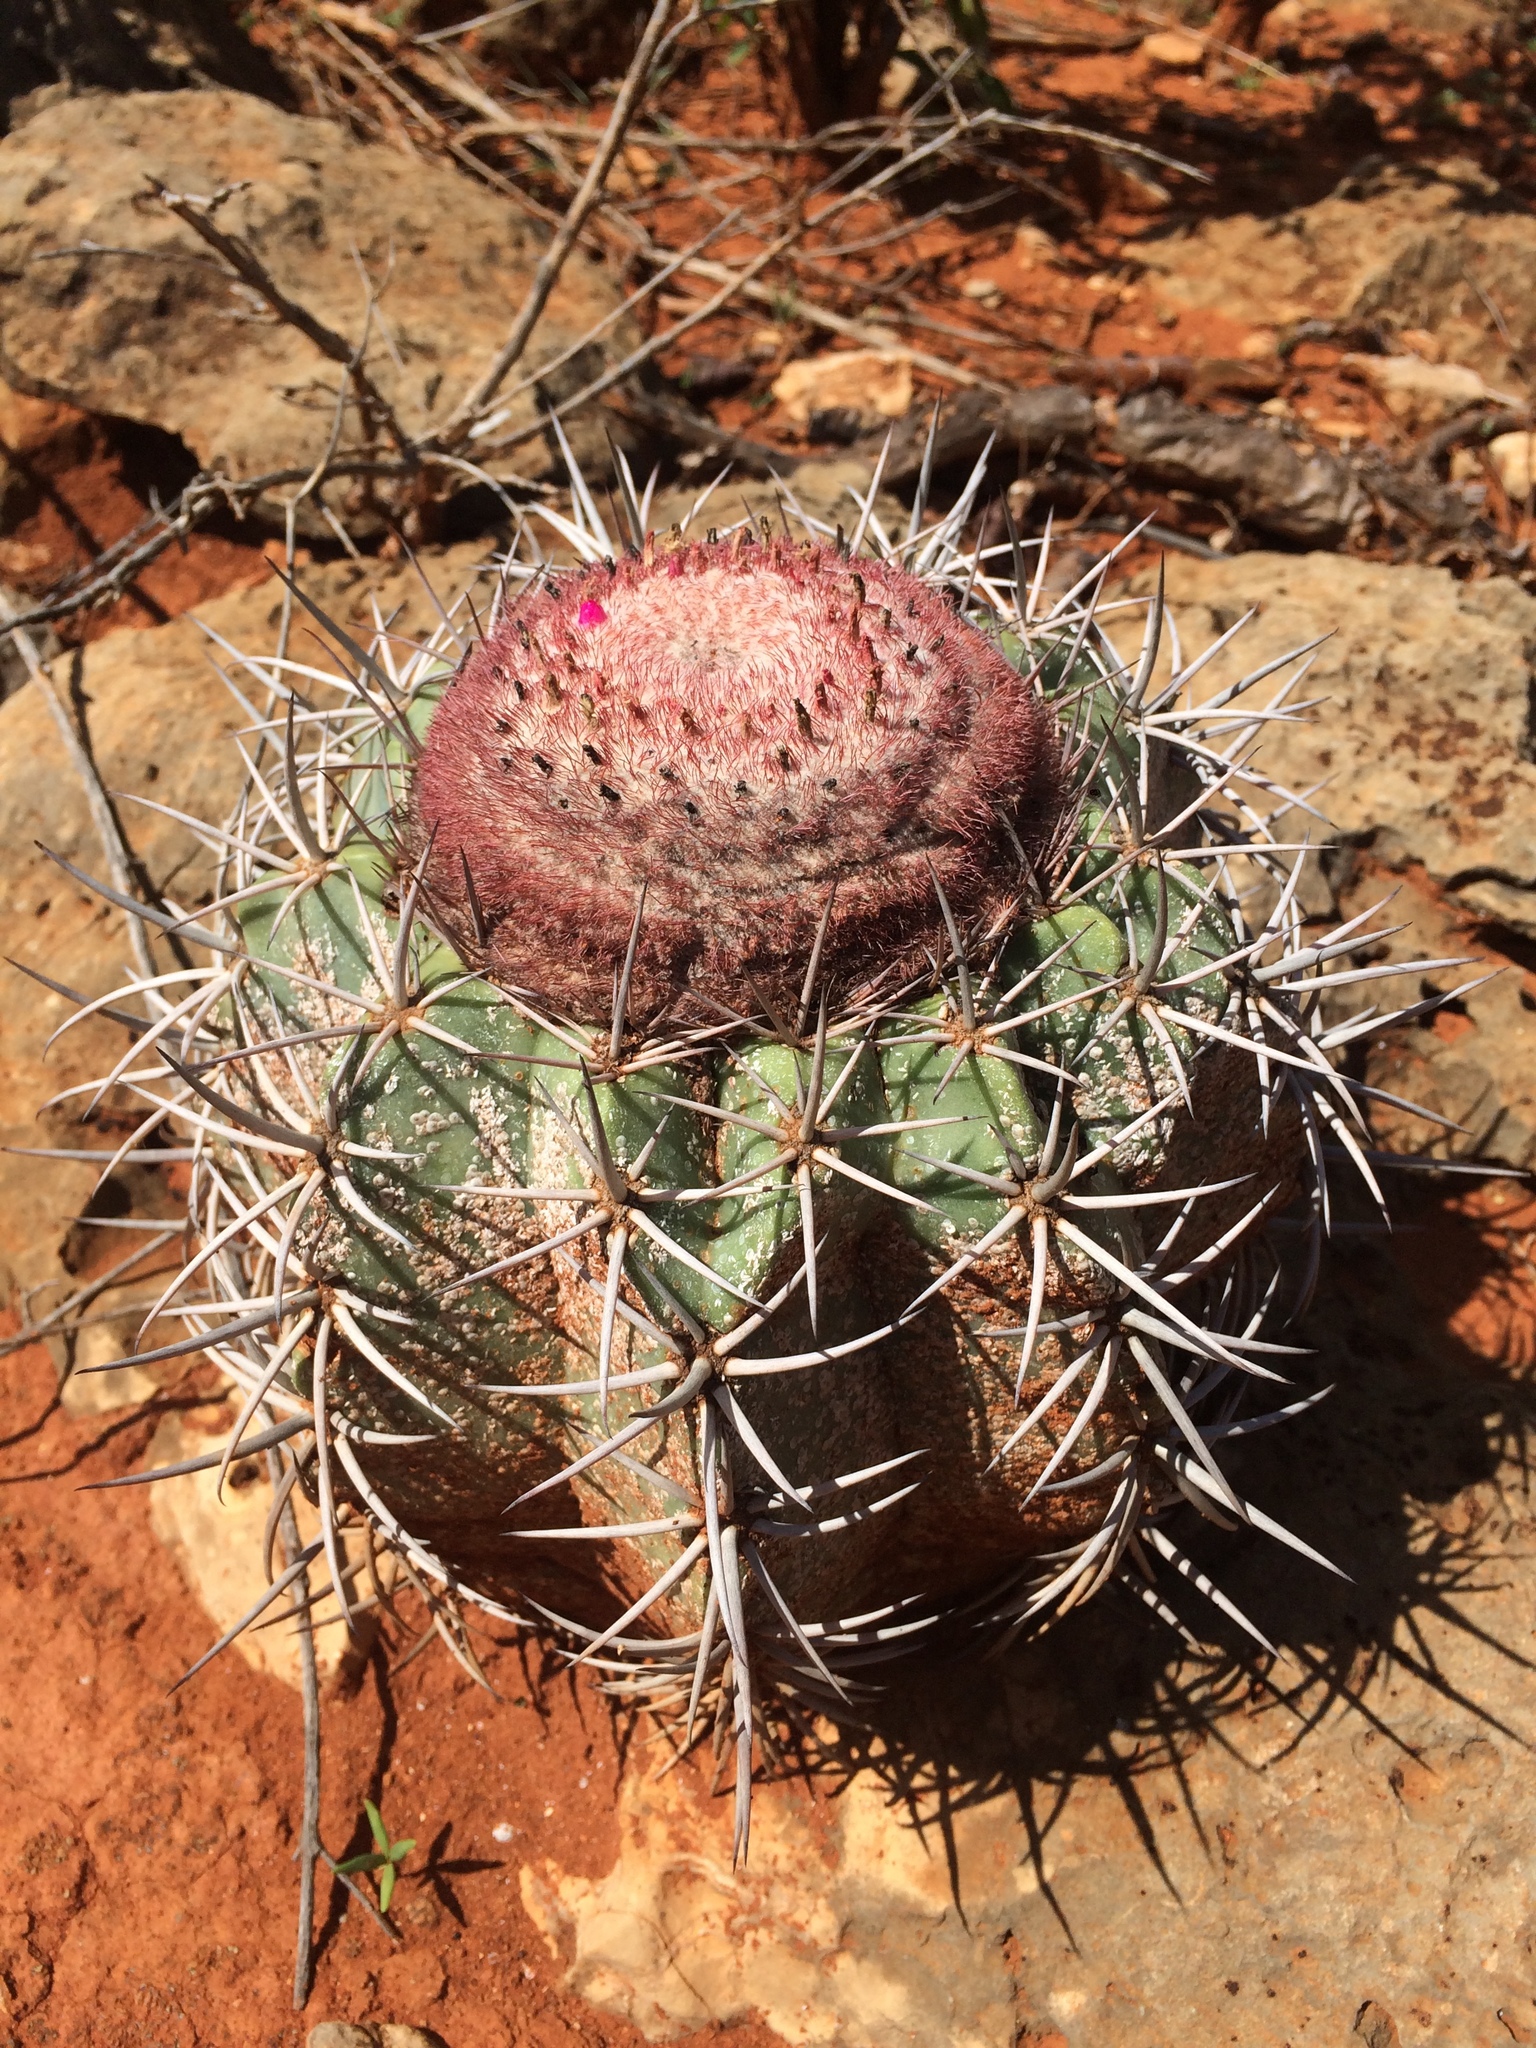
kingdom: Plantae
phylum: Tracheophyta
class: Magnoliopsida
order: Caryophyllales
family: Cactaceae
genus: Melocactus
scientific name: Melocactus pachyacanthus
